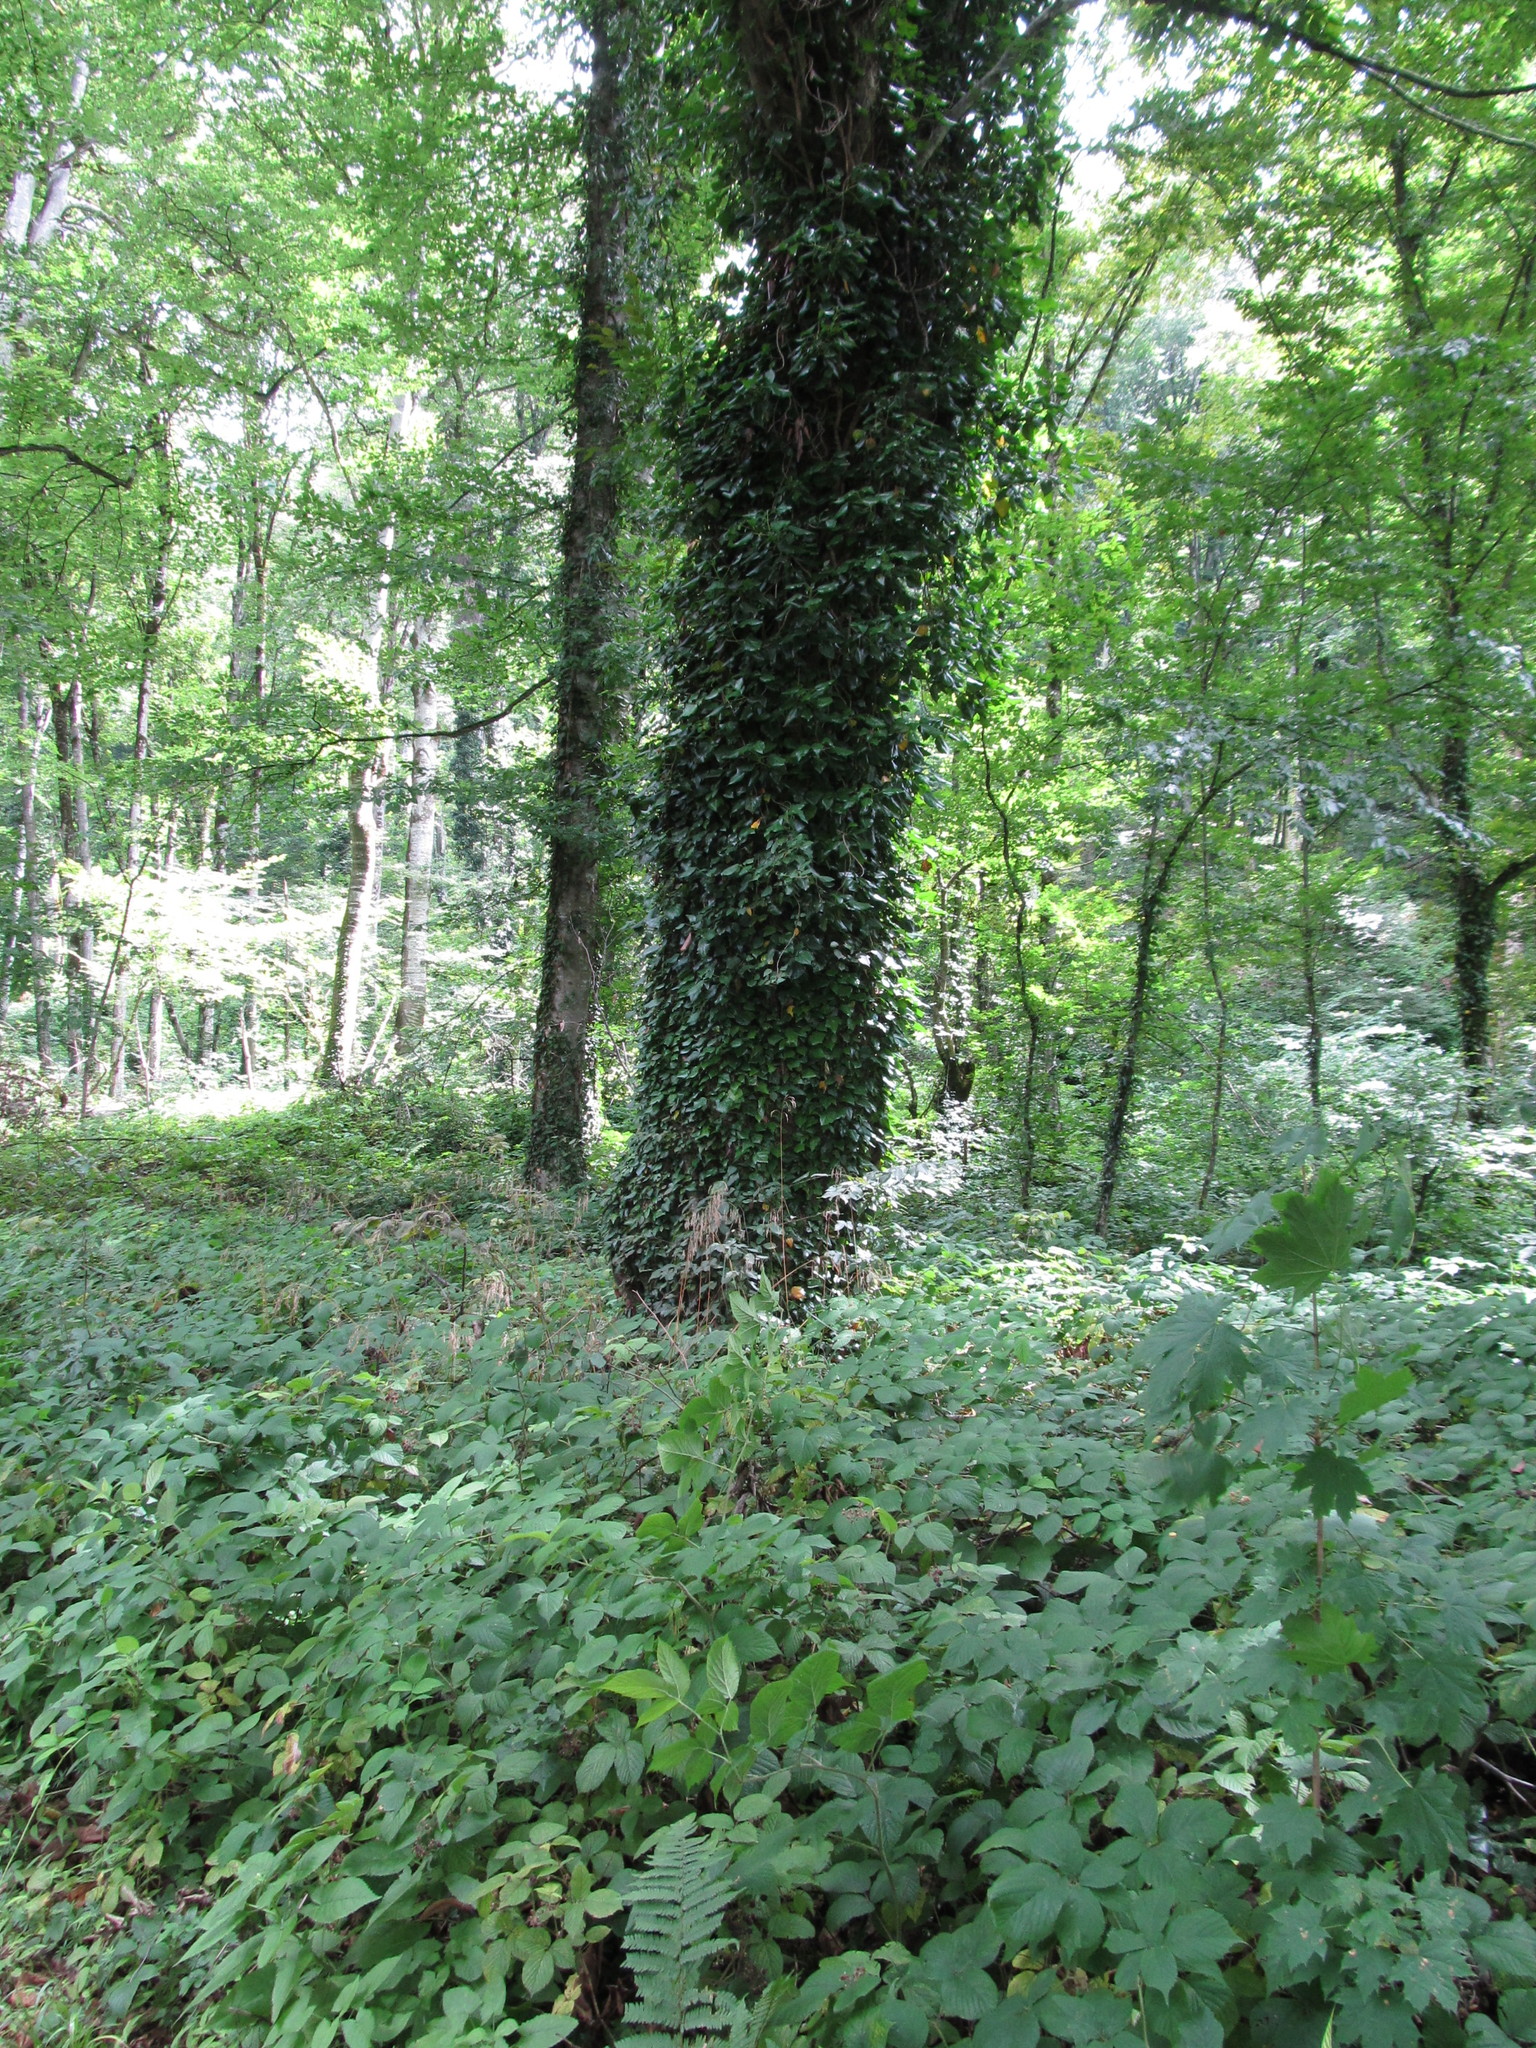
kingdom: Plantae
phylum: Tracheophyta
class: Magnoliopsida
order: Apiales
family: Araliaceae
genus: Hedera
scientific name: Hedera helix
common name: Ivy
